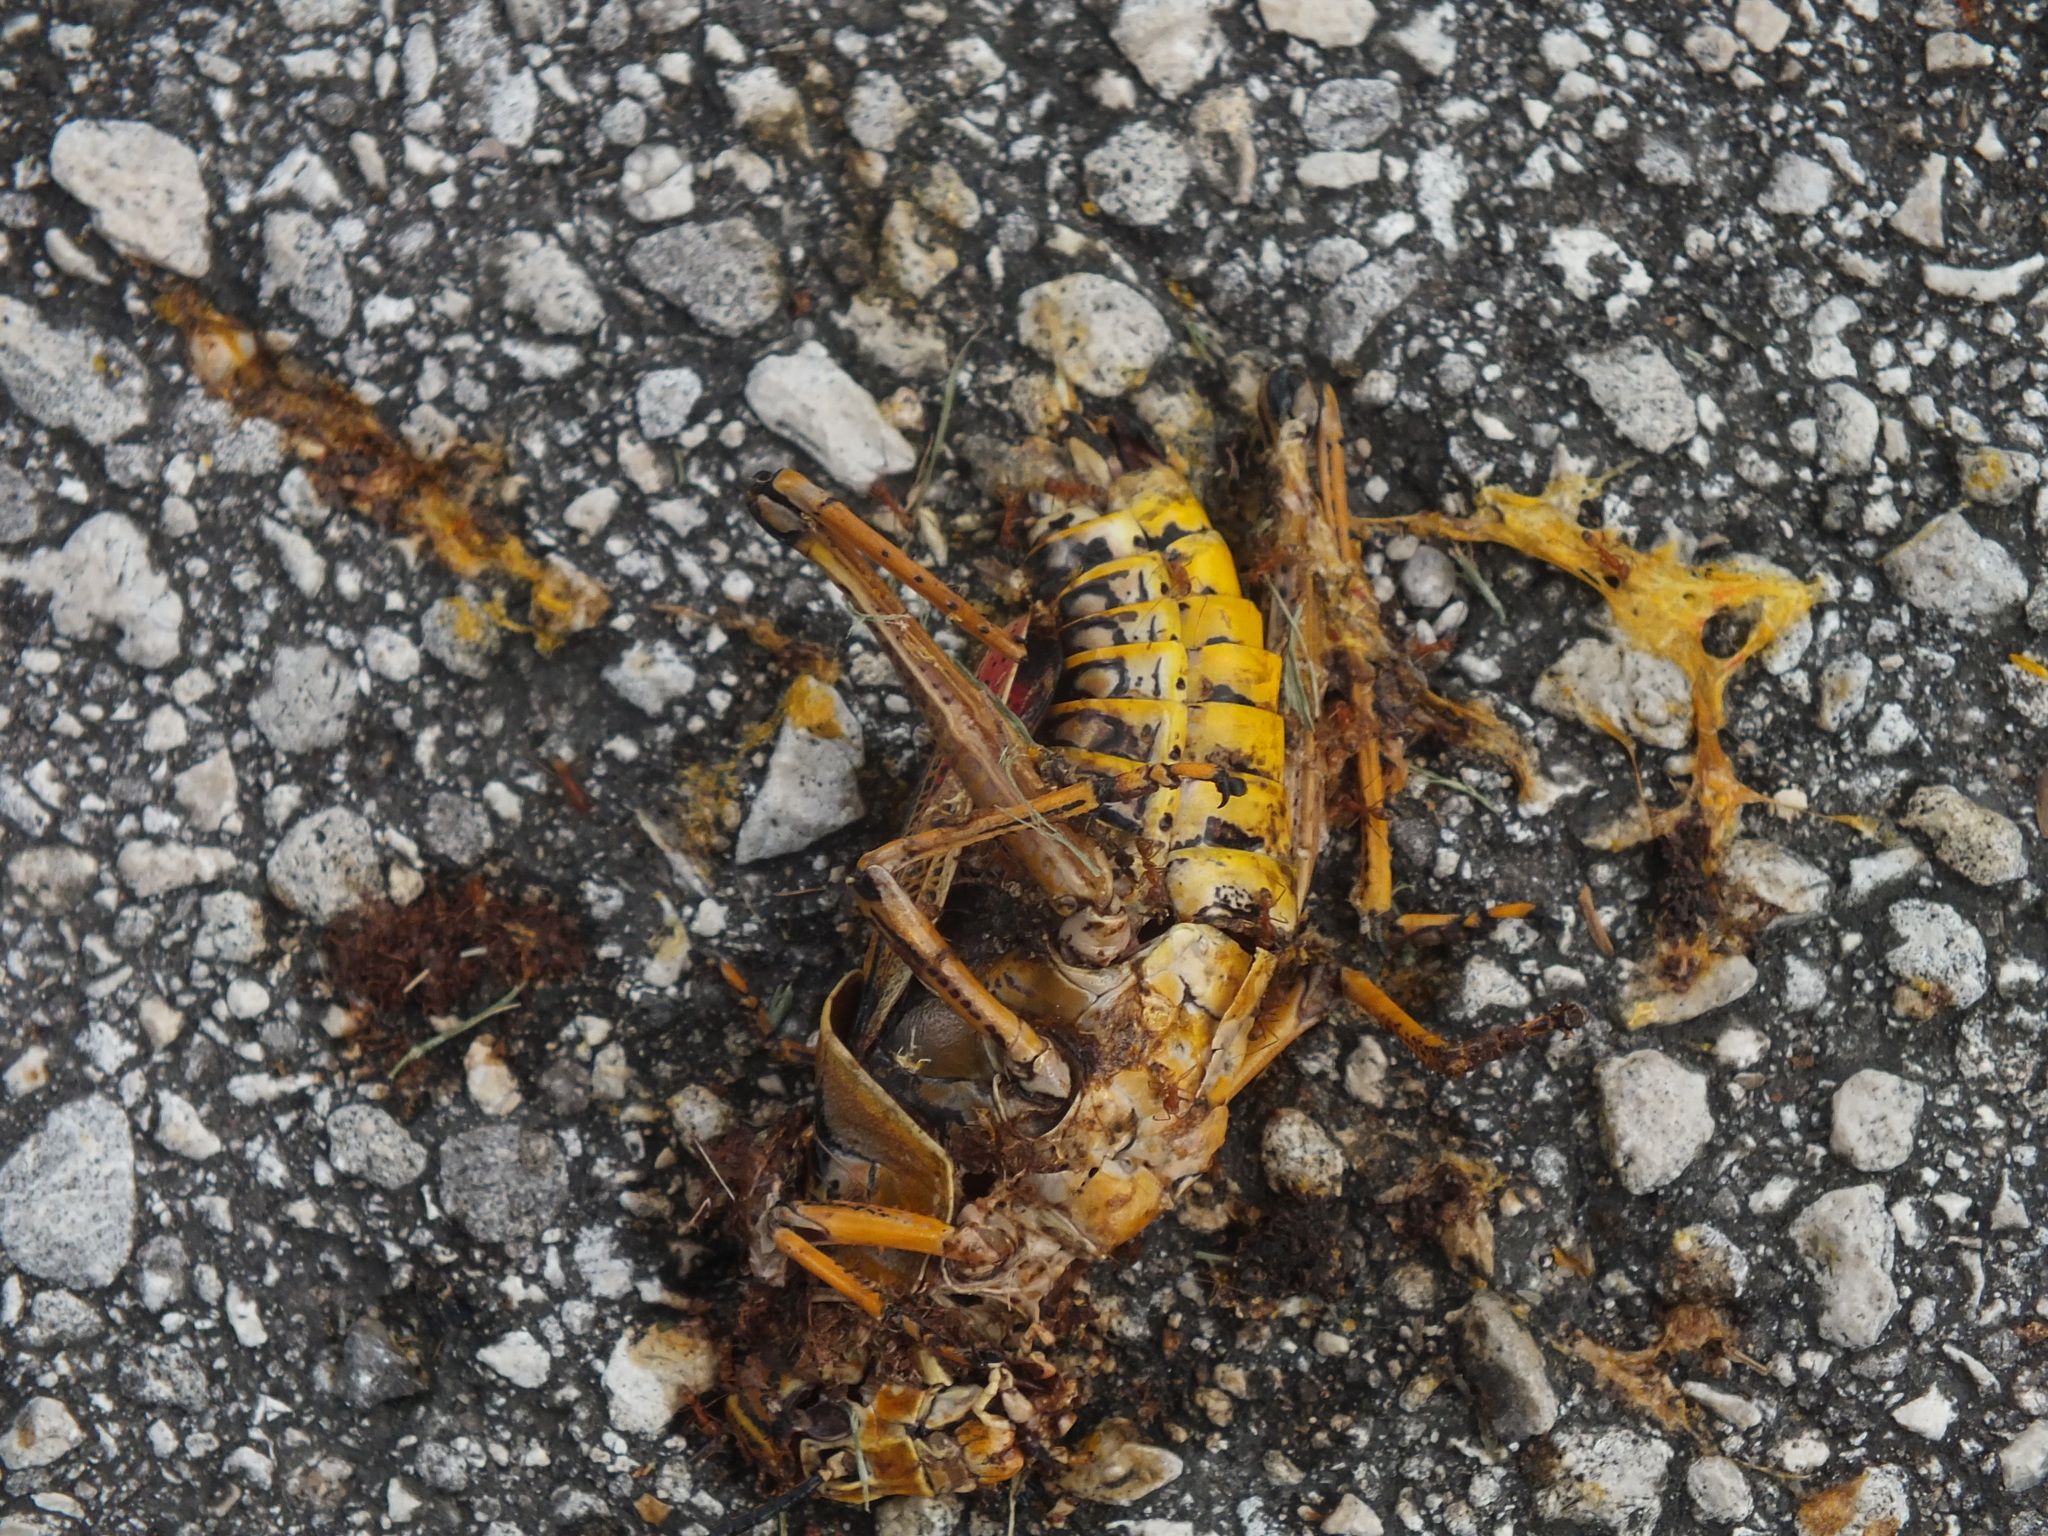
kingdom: Animalia
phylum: Arthropoda
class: Insecta
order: Orthoptera
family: Romaleidae
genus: Romalea
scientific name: Romalea microptera
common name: Eastern lubber grasshopper
